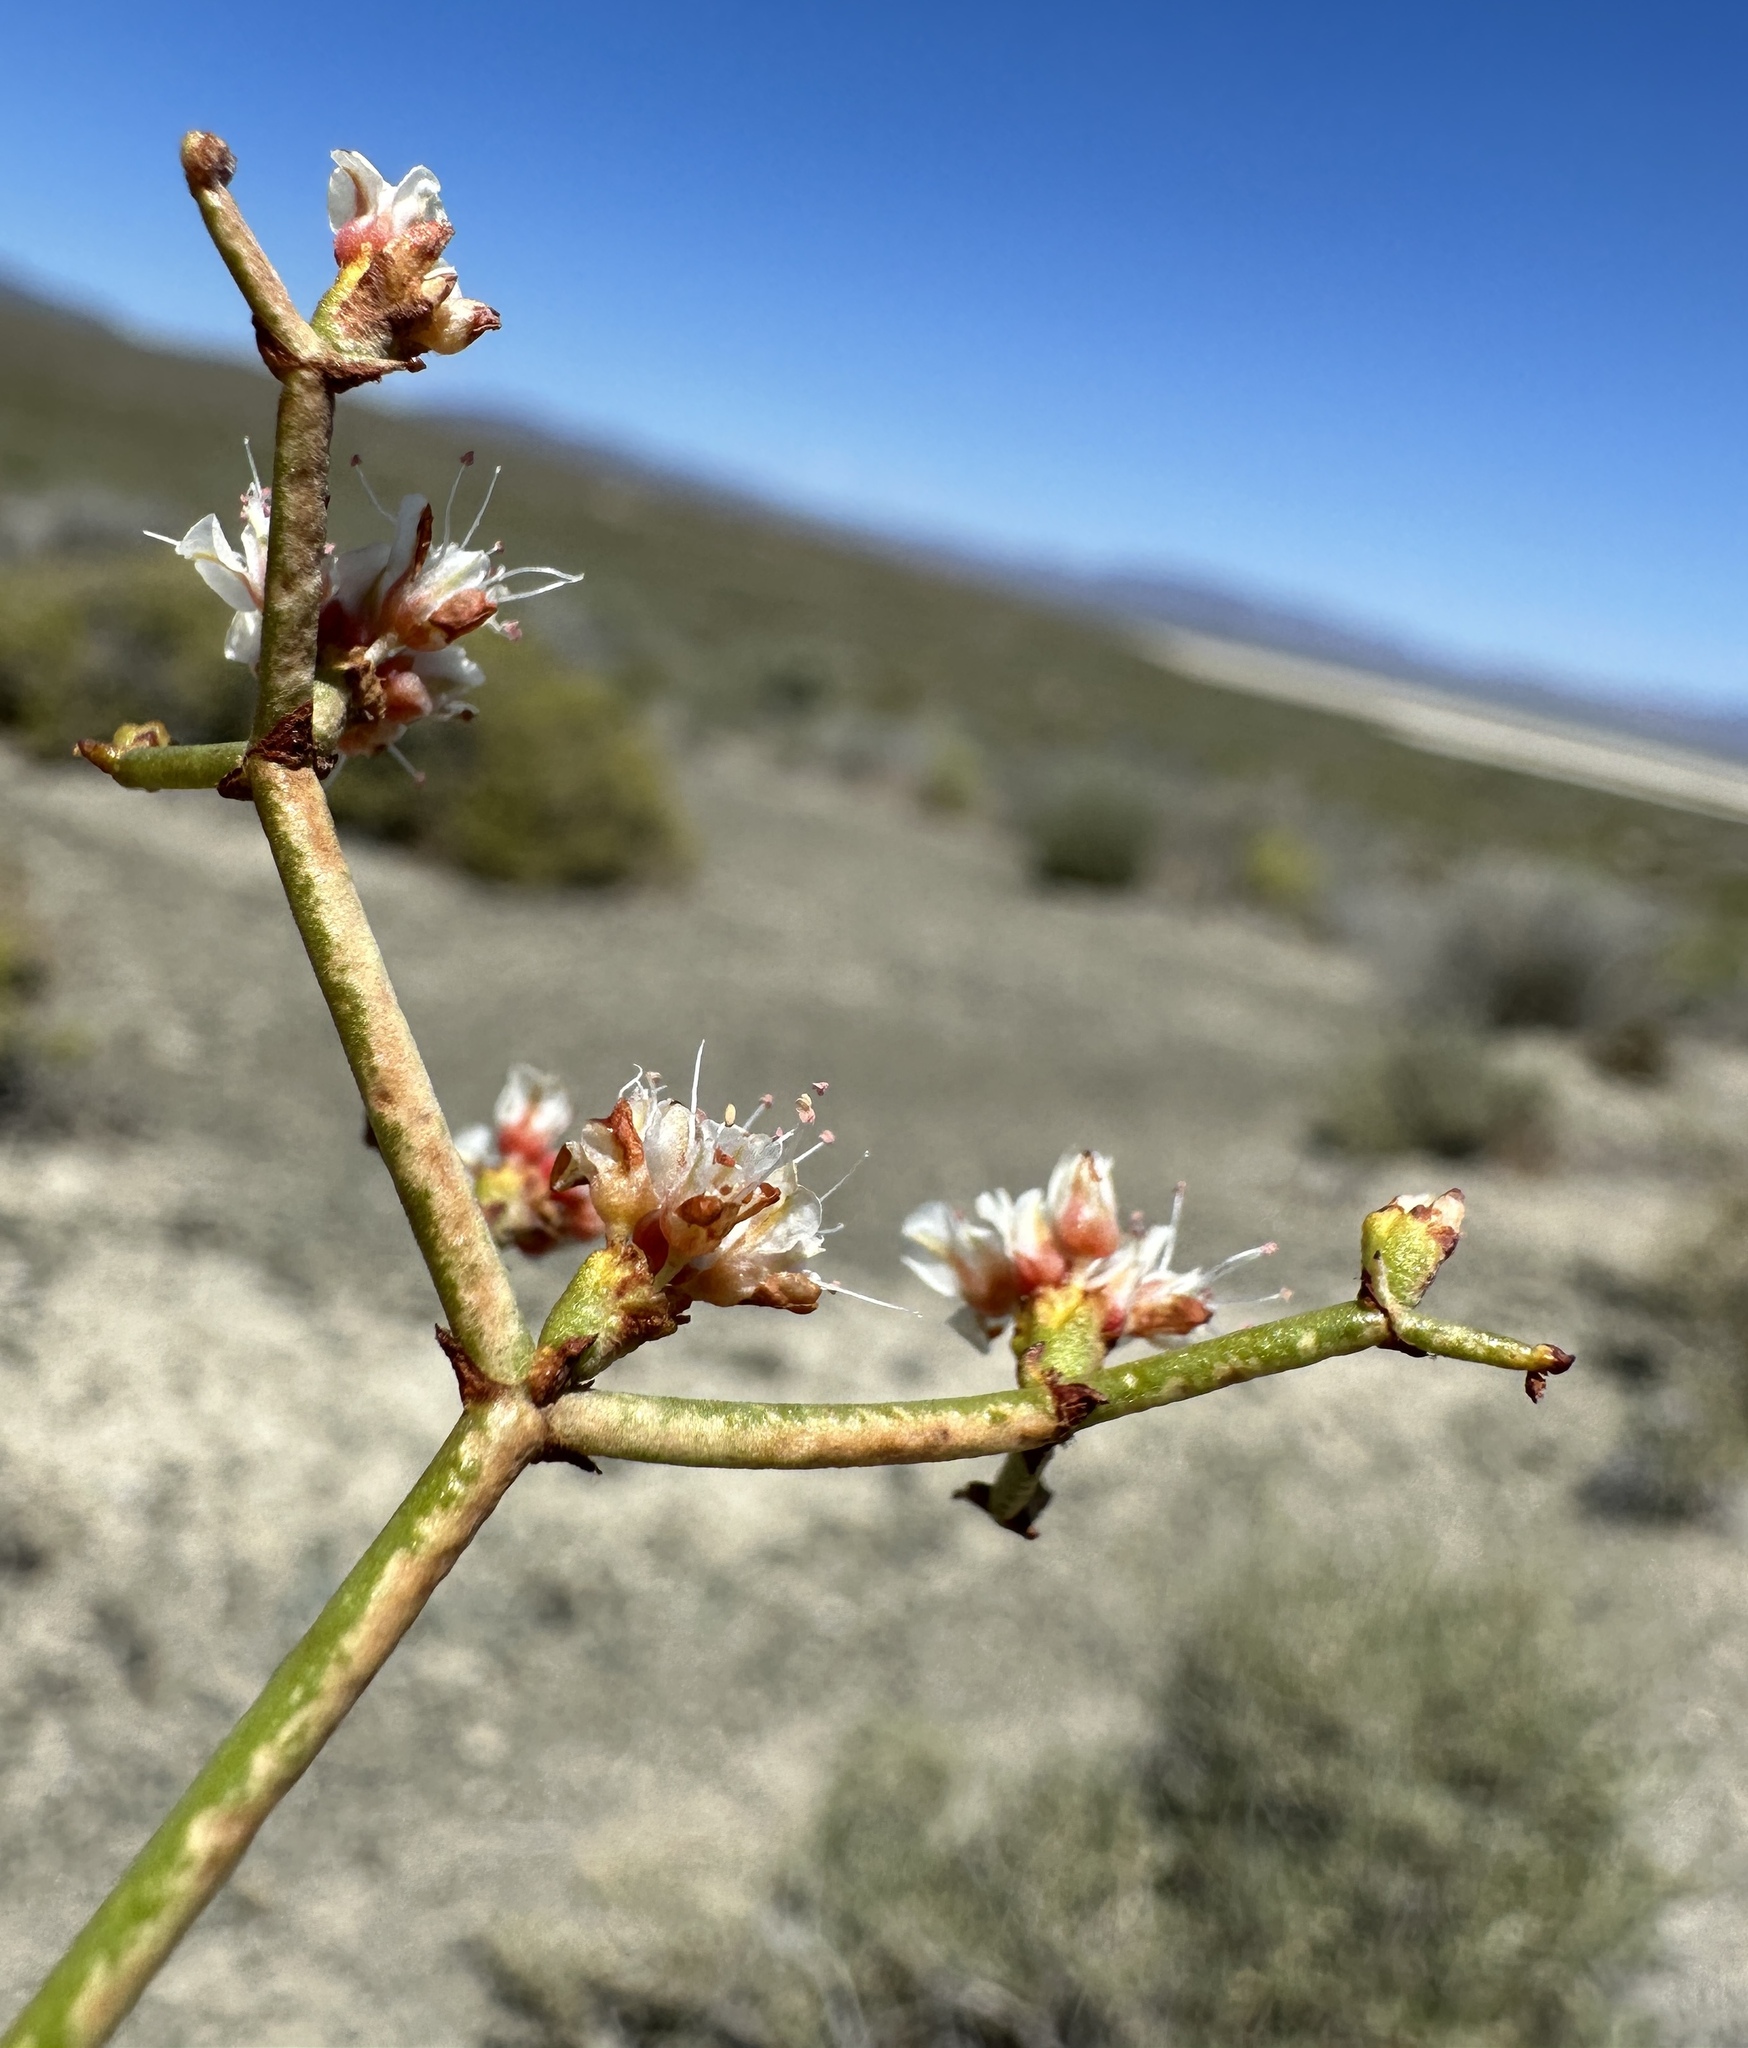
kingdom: Plantae
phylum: Tracheophyta
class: Magnoliopsida
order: Caryophyllales
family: Polygonaceae
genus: Eriogonum
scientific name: Eriogonum heermannii
